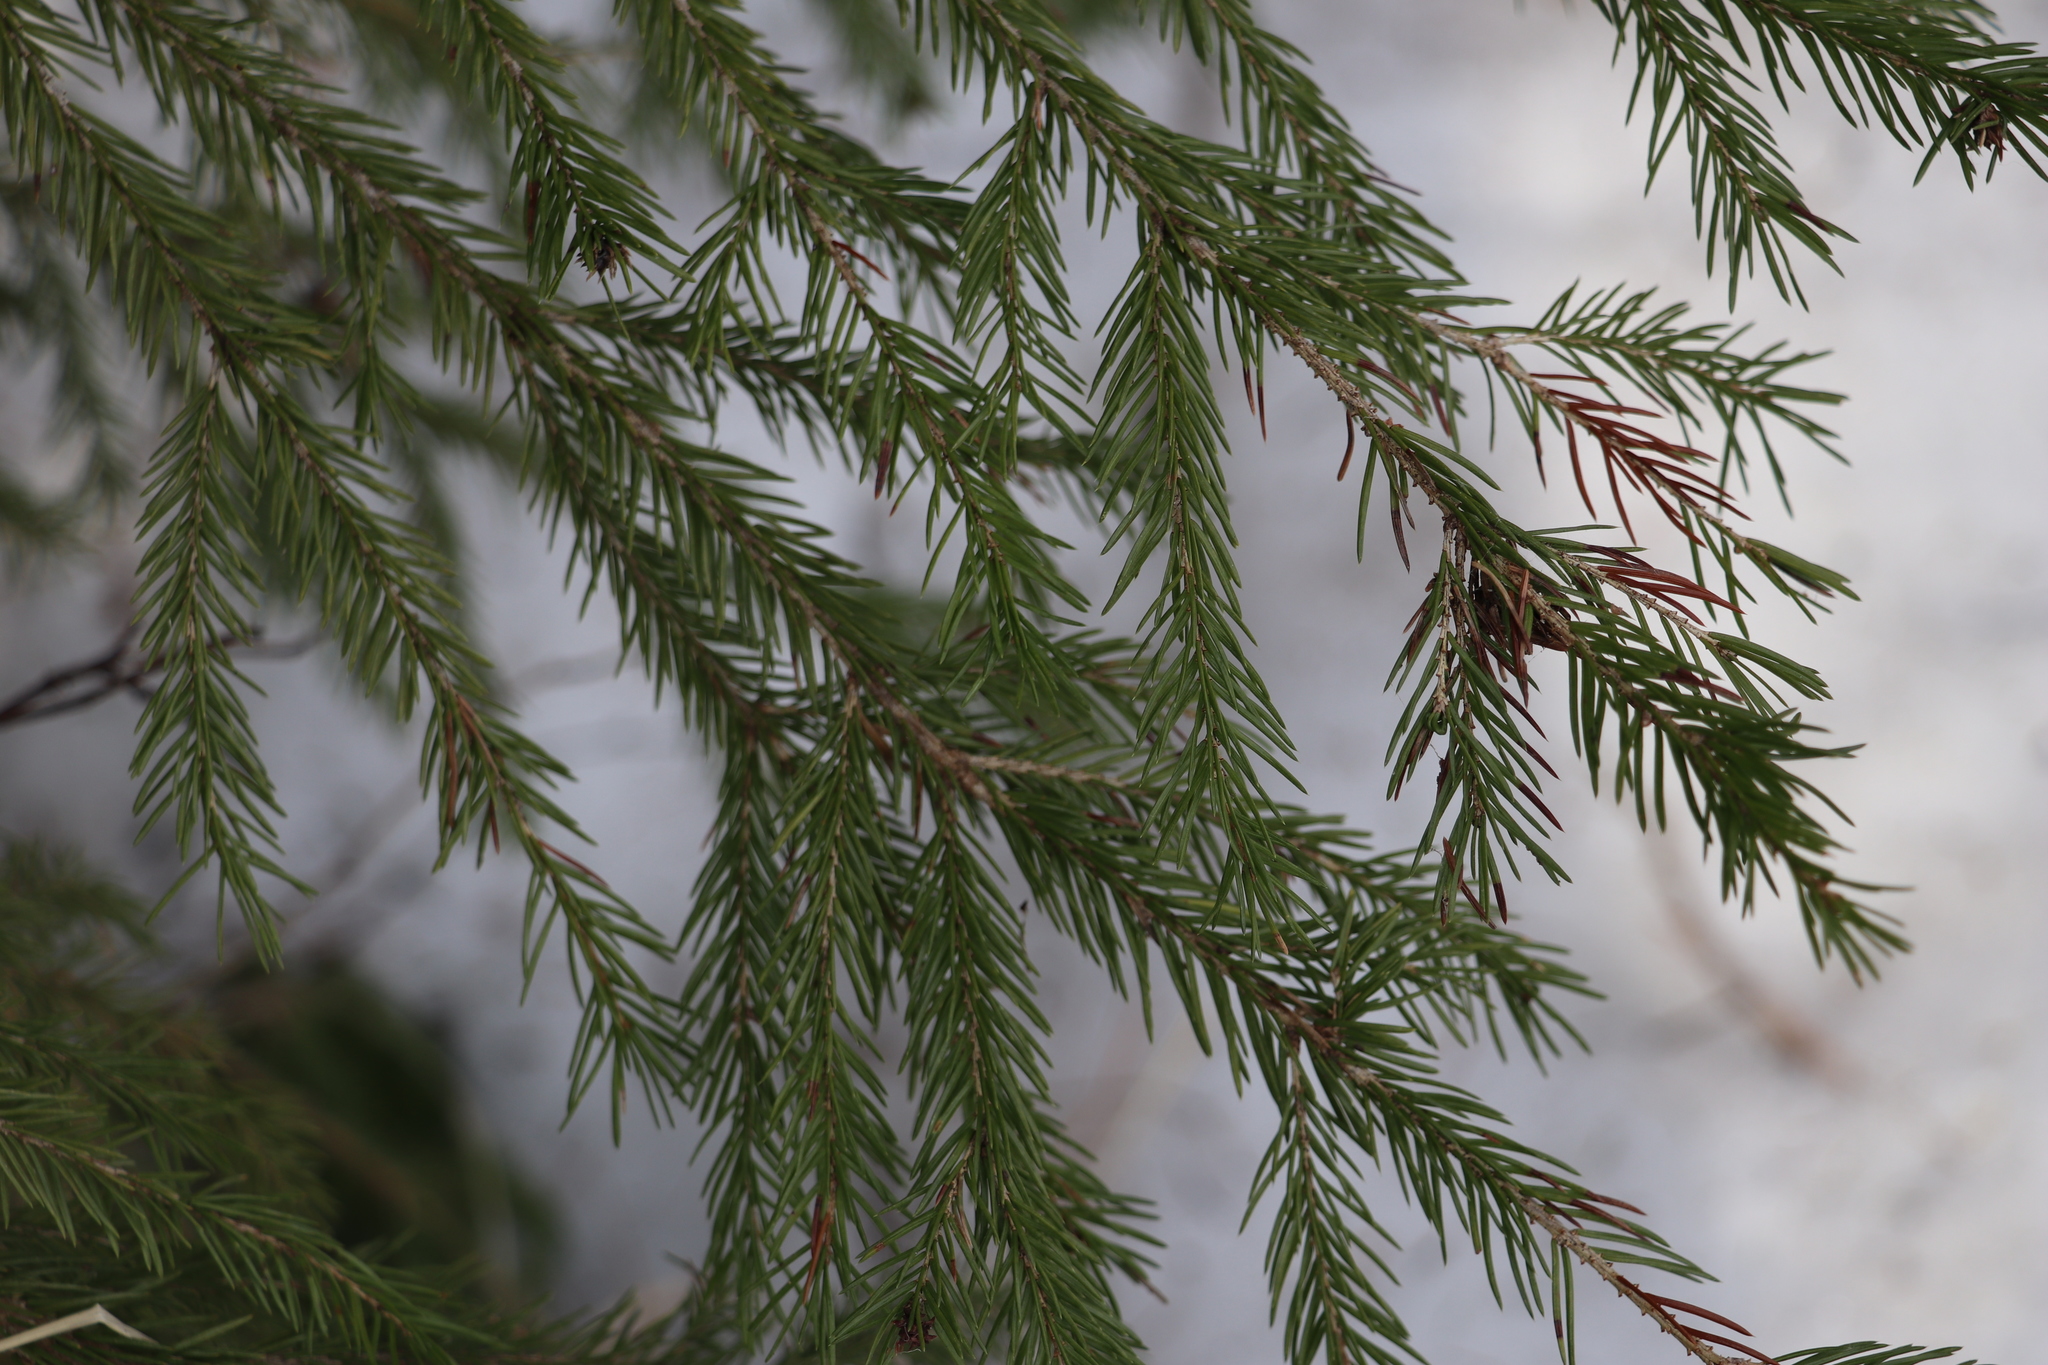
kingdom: Plantae
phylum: Tracheophyta
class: Pinopsida
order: Pinales
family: Pinaceae
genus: Picea
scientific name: Picea obovata
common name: Siberian spruce
